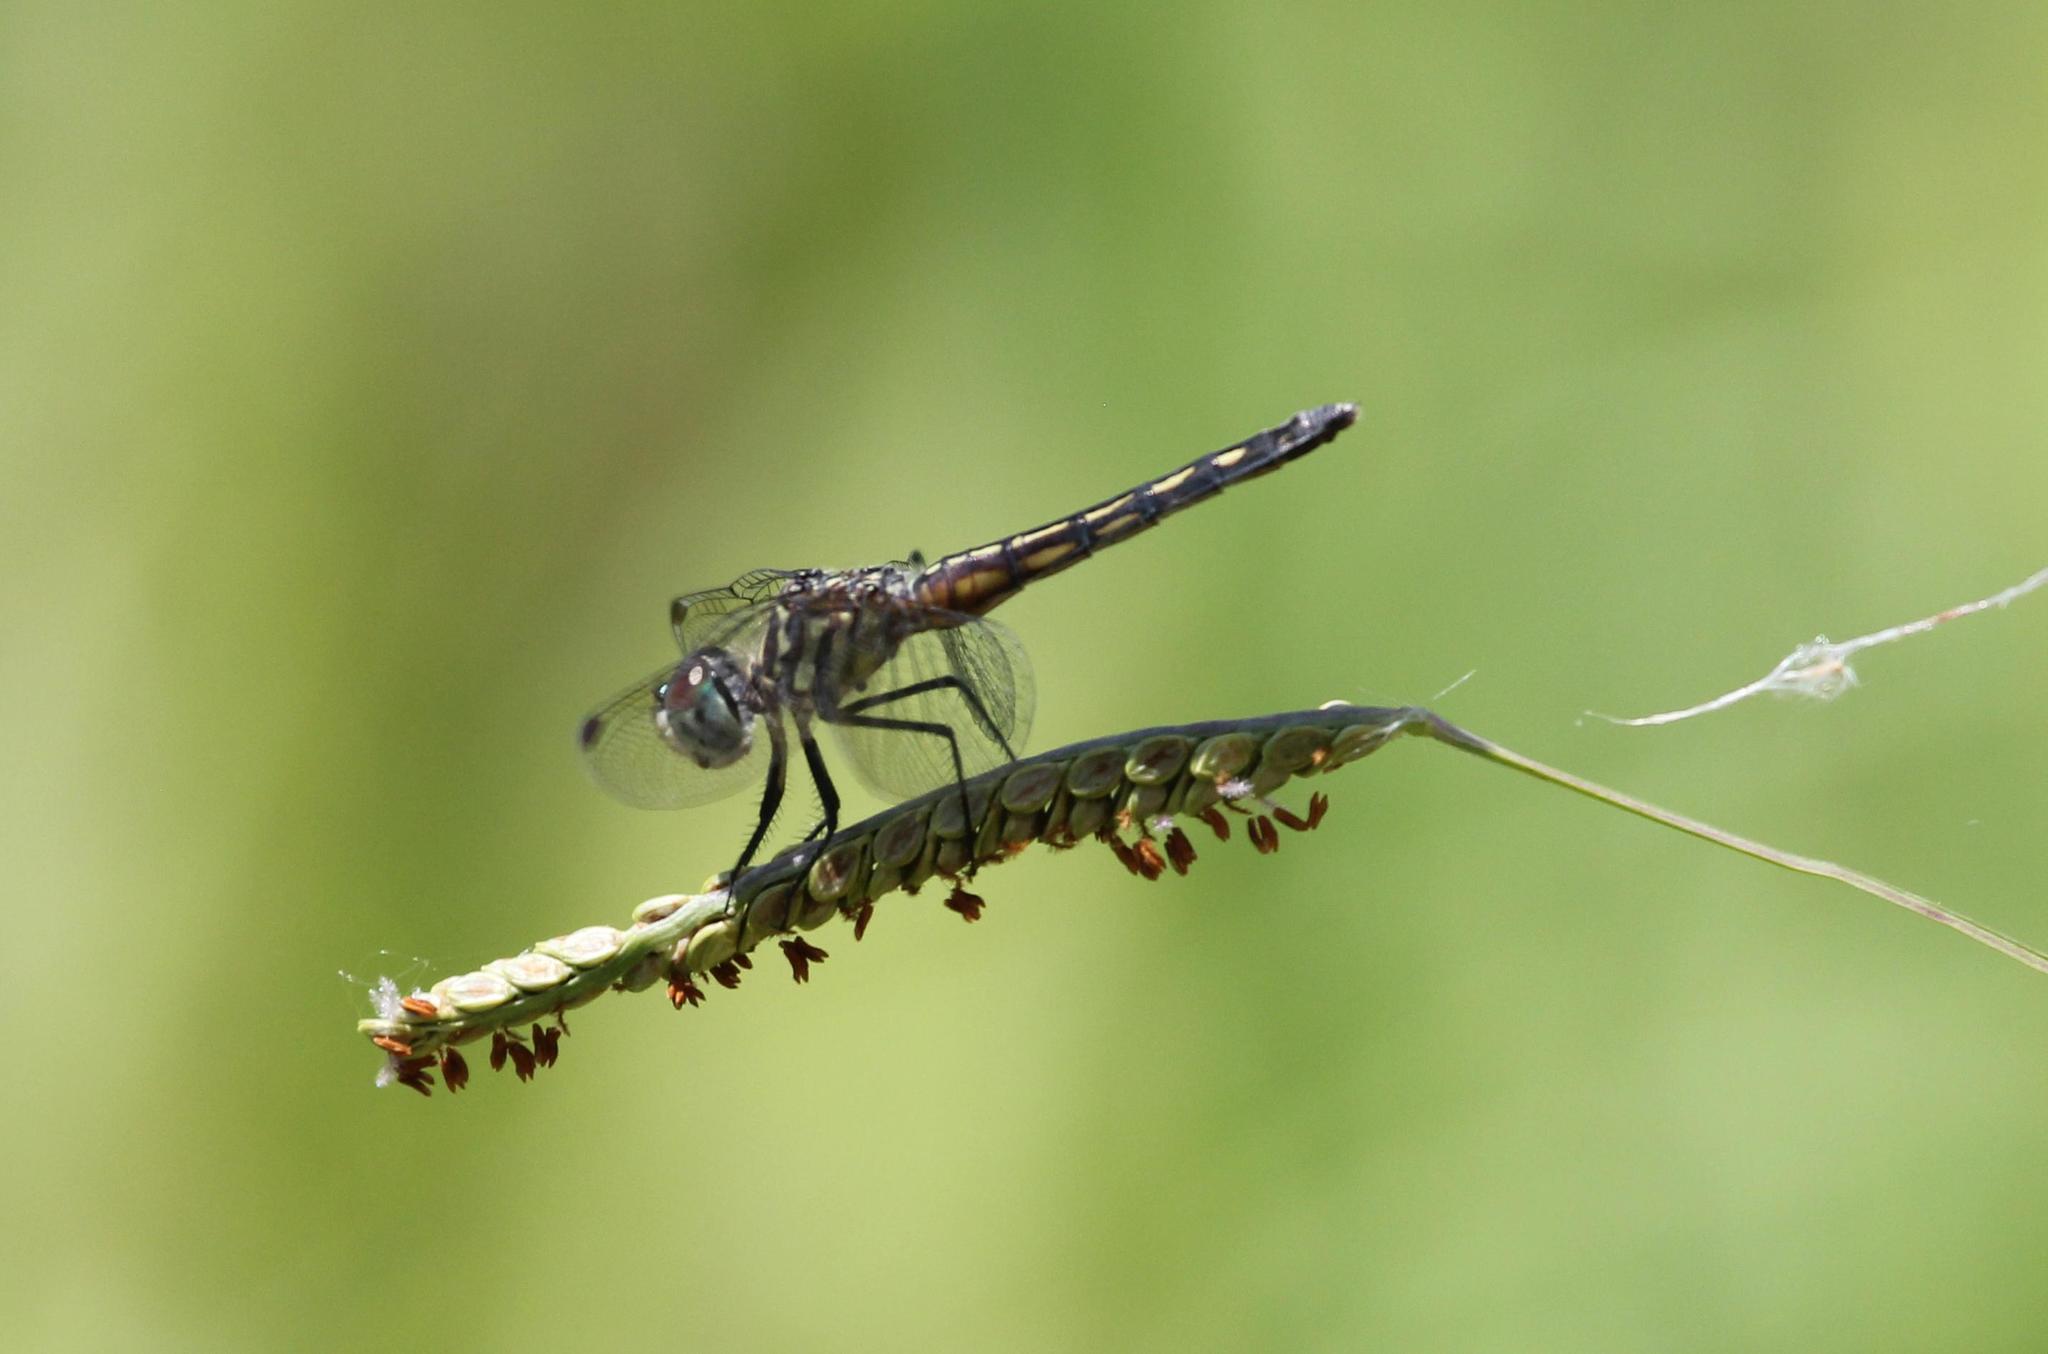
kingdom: Animalia
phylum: Arthropoda
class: Insecta
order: Odonata
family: Libellulidae
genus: Pachydiplax
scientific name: Pachydiplax longipennis
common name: Blue dasher
